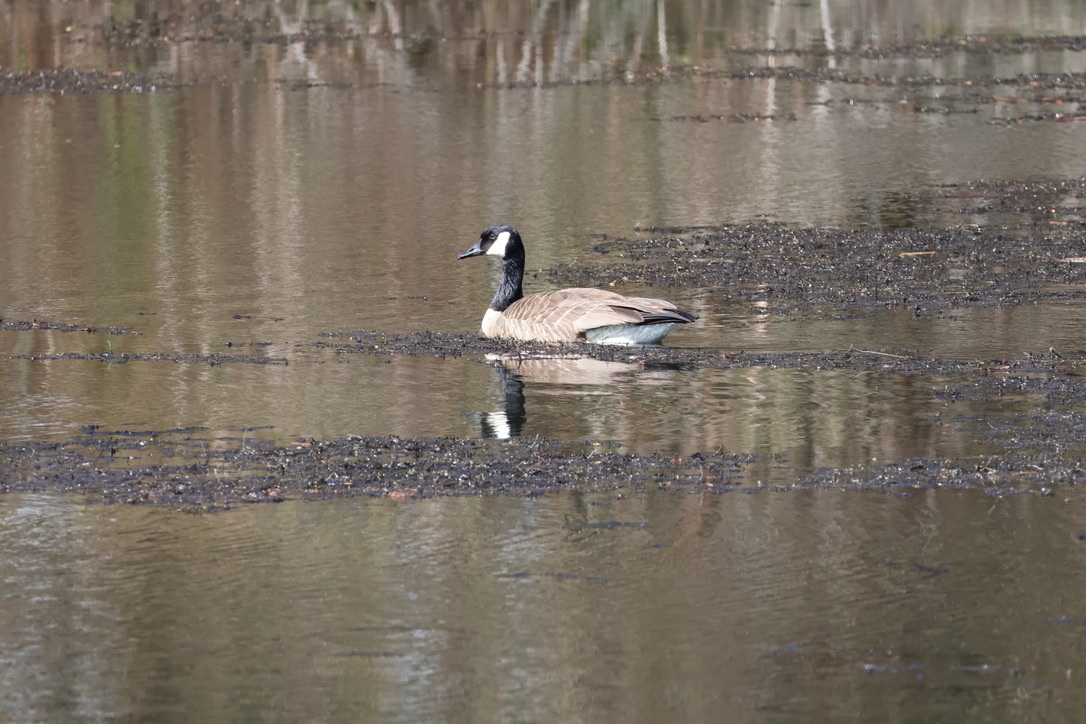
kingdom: Animalia
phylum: Chordata
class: Aves
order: Anseriformes
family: Anatidae
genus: Branta
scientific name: Branta canadensis
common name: Canada goose
